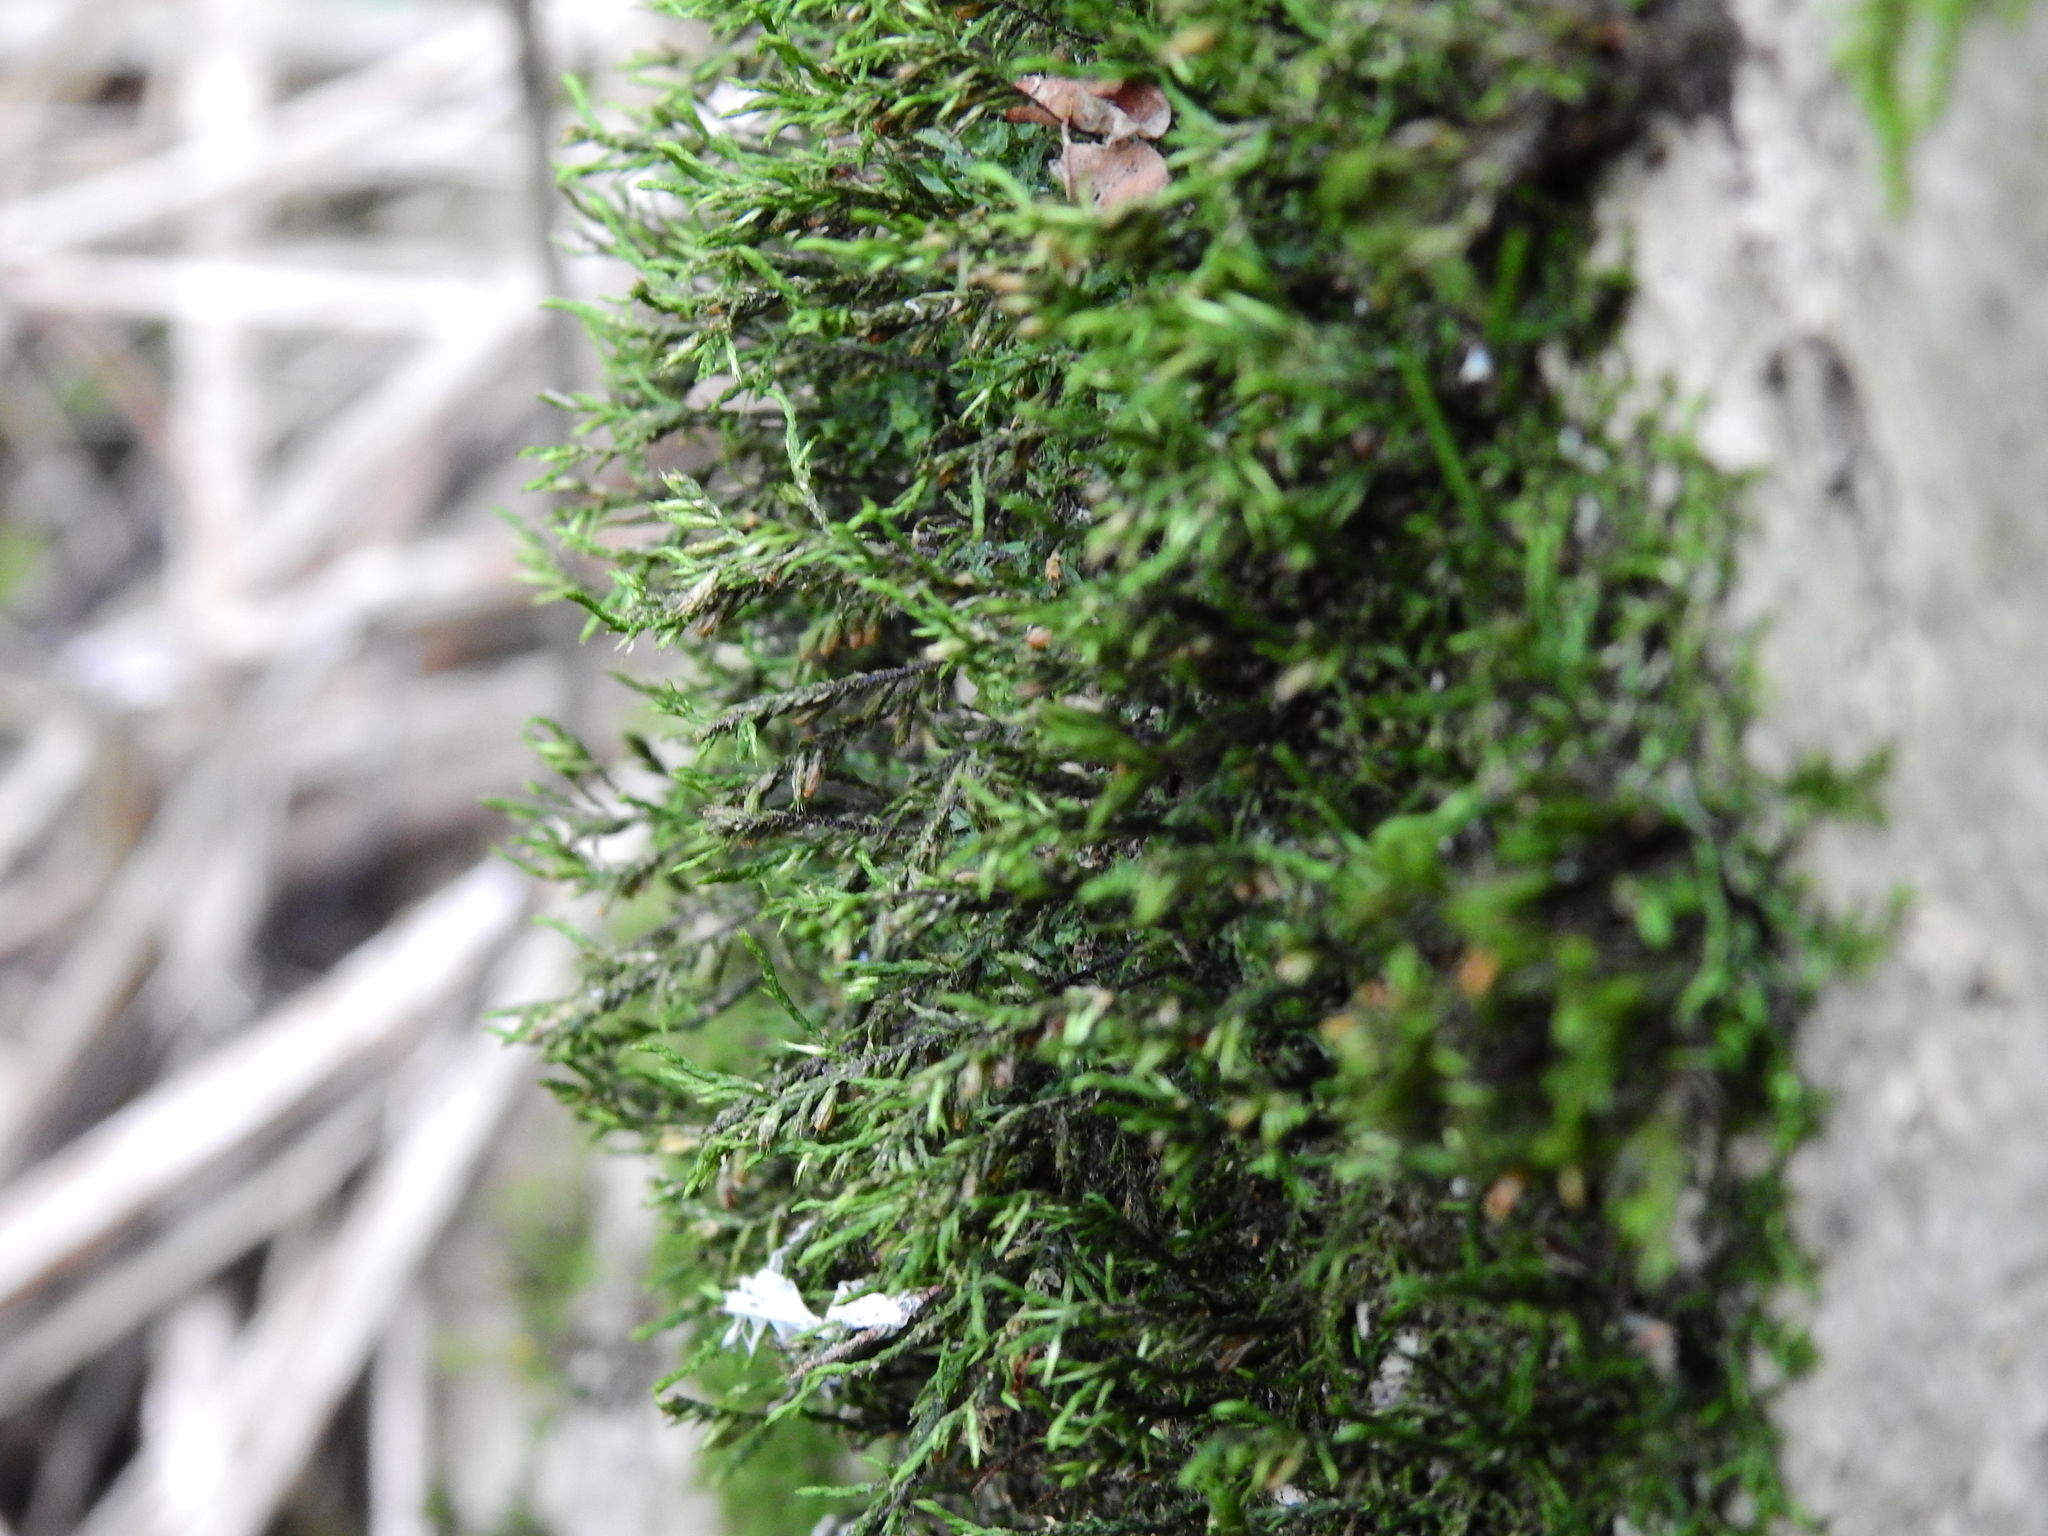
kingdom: Plantae
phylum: Bryophyta
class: Bryopsida
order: Hypnales
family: Cryphaeaceae
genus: Cryphaea
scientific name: Cryphaea heteromalla
